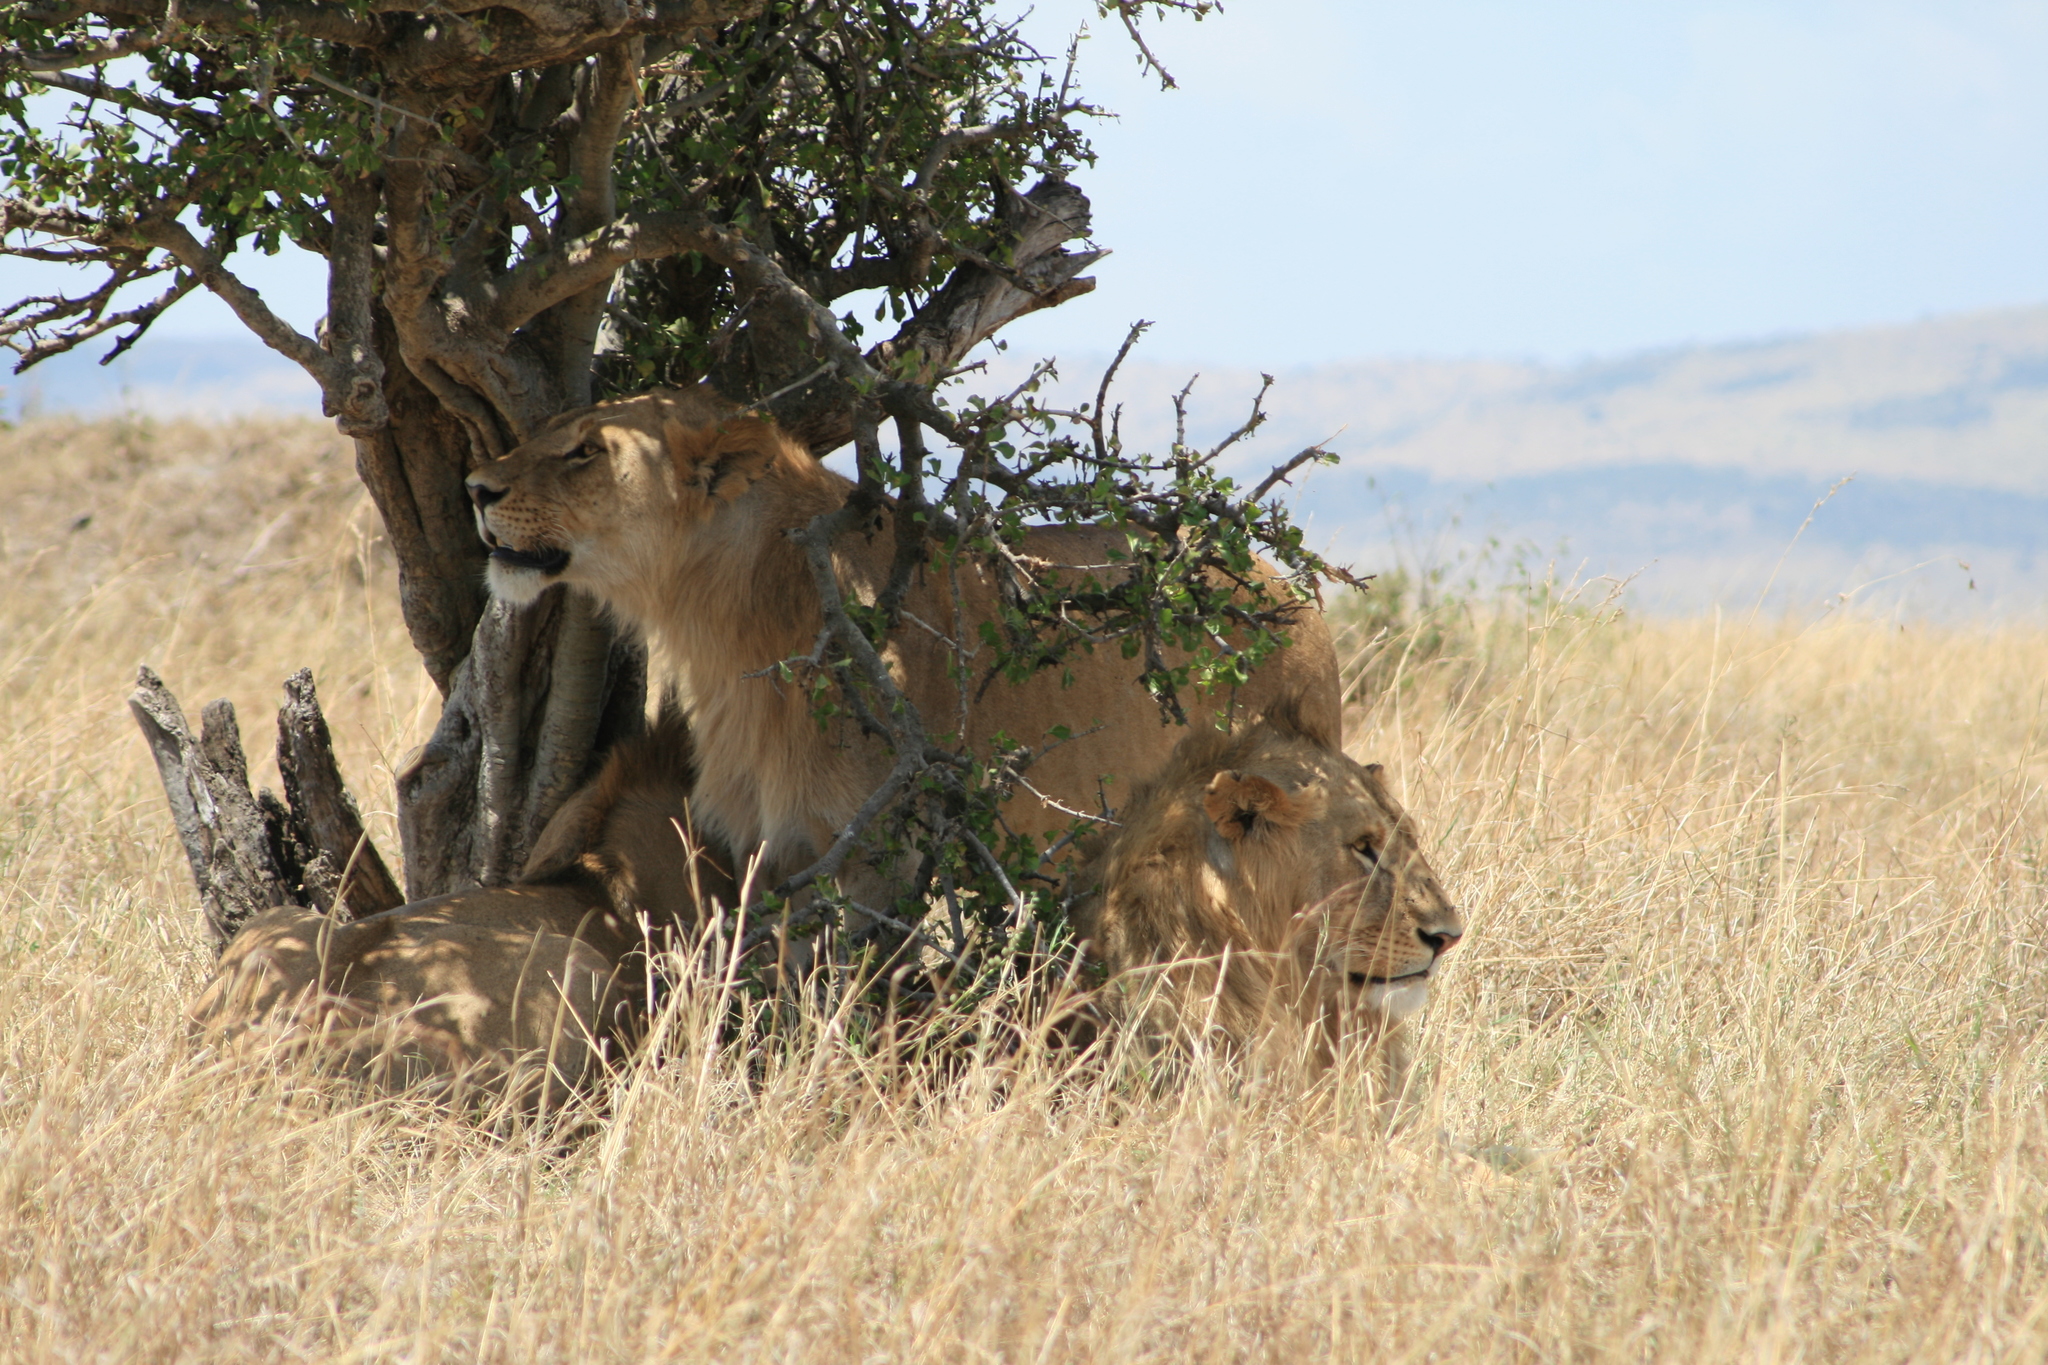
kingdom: Animalia
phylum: Chordata
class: Mammalia
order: Carnivora
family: Felidae
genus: Panthera
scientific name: Panthera leo
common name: Lion
